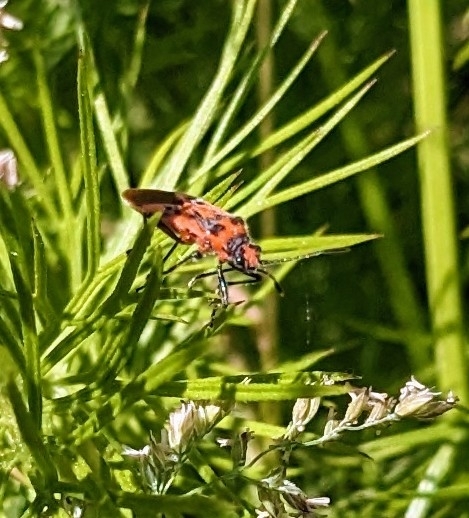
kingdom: Animalia
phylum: Arthropoda
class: Insecta
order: Hemiptera
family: Rhopalidae
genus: Corizus
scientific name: Corizus hyoscyami
